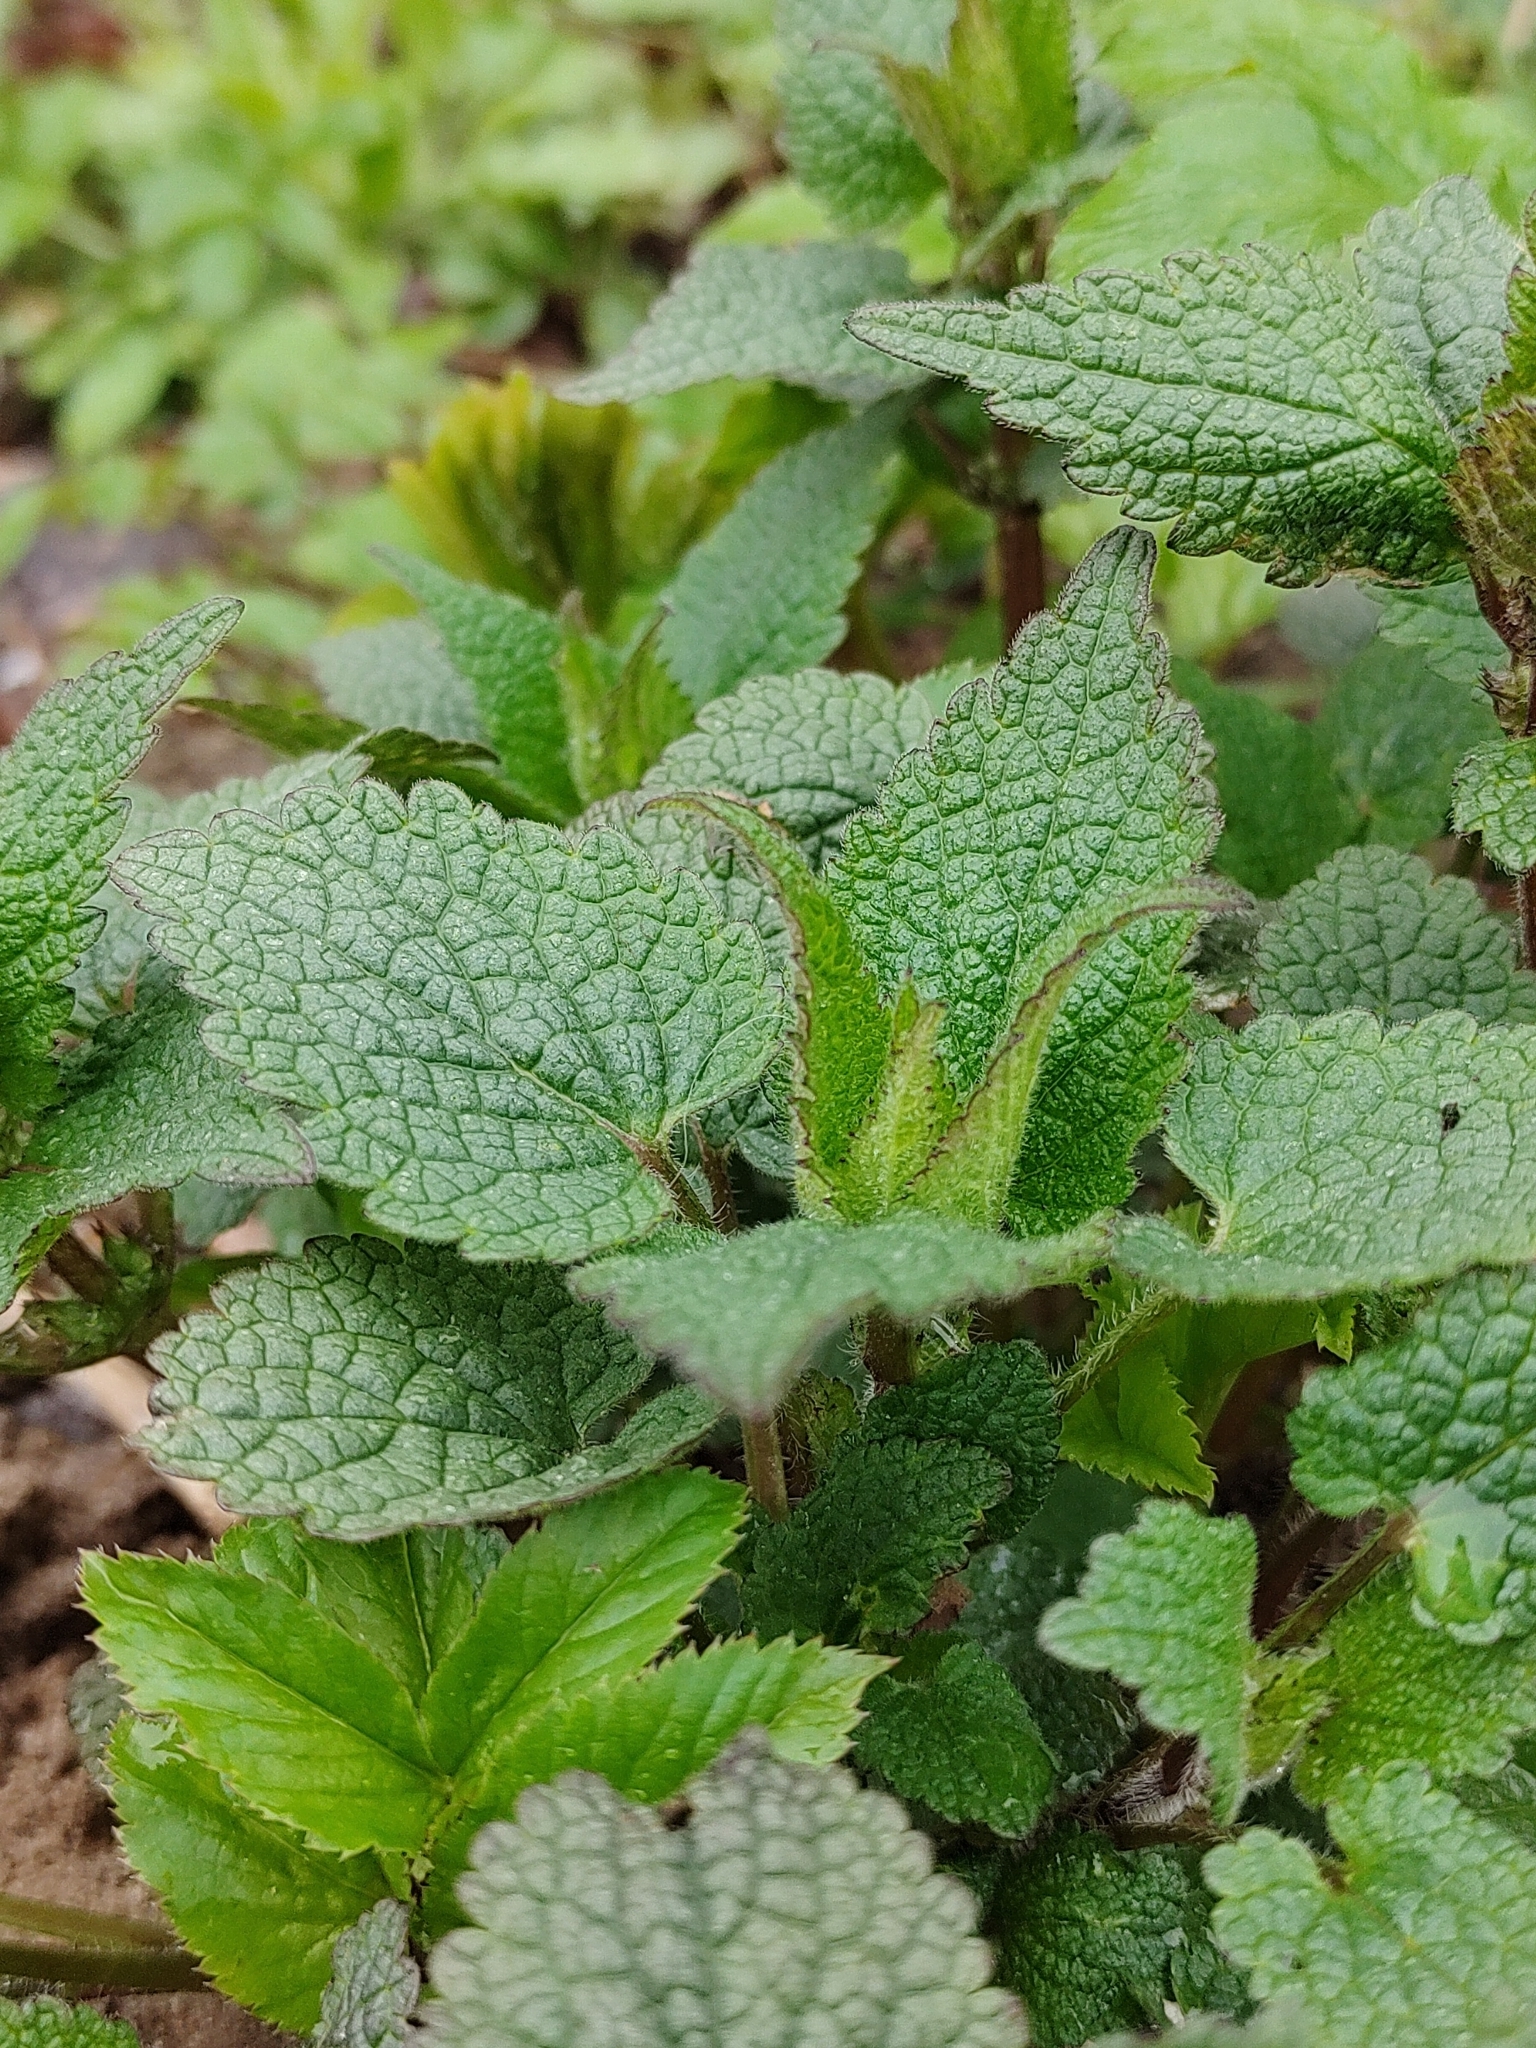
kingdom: Plantae
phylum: Tracheophyta
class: Magnoliopsida
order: Lamiales
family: Lamiaceae
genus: Lamium
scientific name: Lamium album
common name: White dead-nettle
